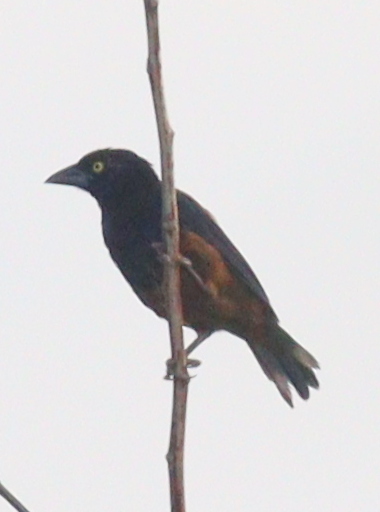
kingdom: Animalia
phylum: Chordata
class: Aves
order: Passeriformes
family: Ploceidae
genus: Ploceus
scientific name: Ploceus castaneofuscus
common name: Chestnut-and-black weaver
